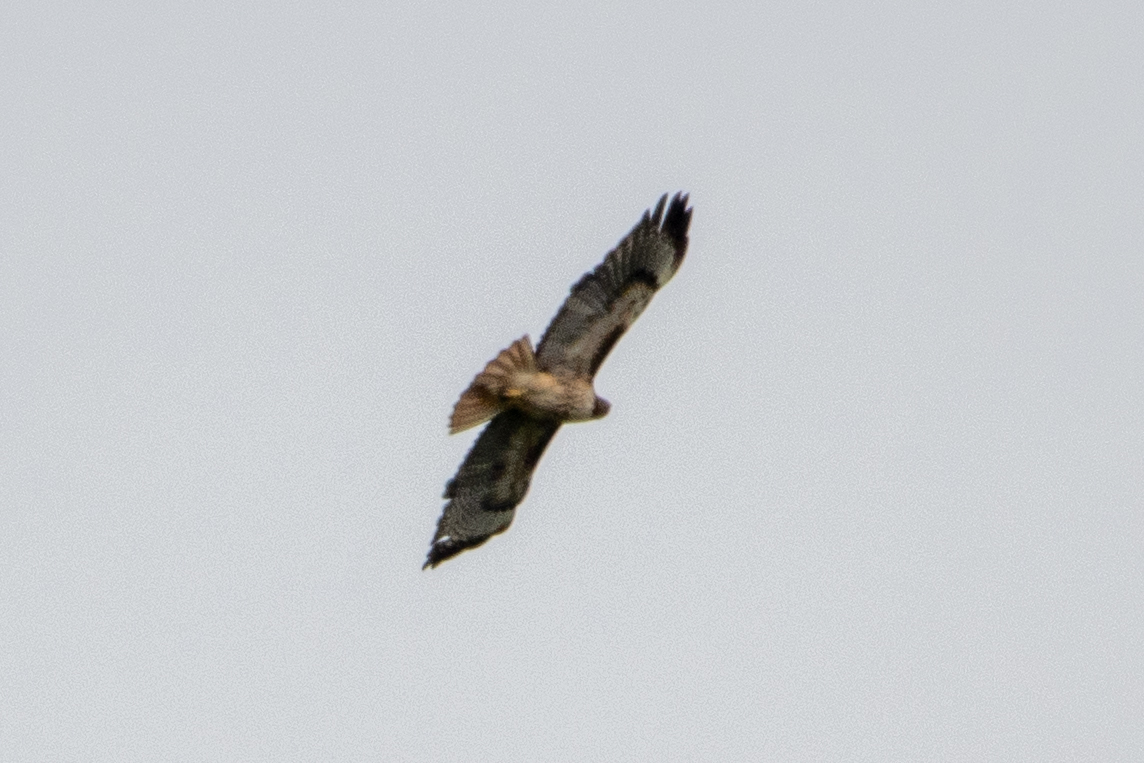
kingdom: Animalia
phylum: Chordata
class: Aves
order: Accipitriformes
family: Accipitridae
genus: Buteo
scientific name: Buteo jamaicensis
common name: Red-tailed hawk
